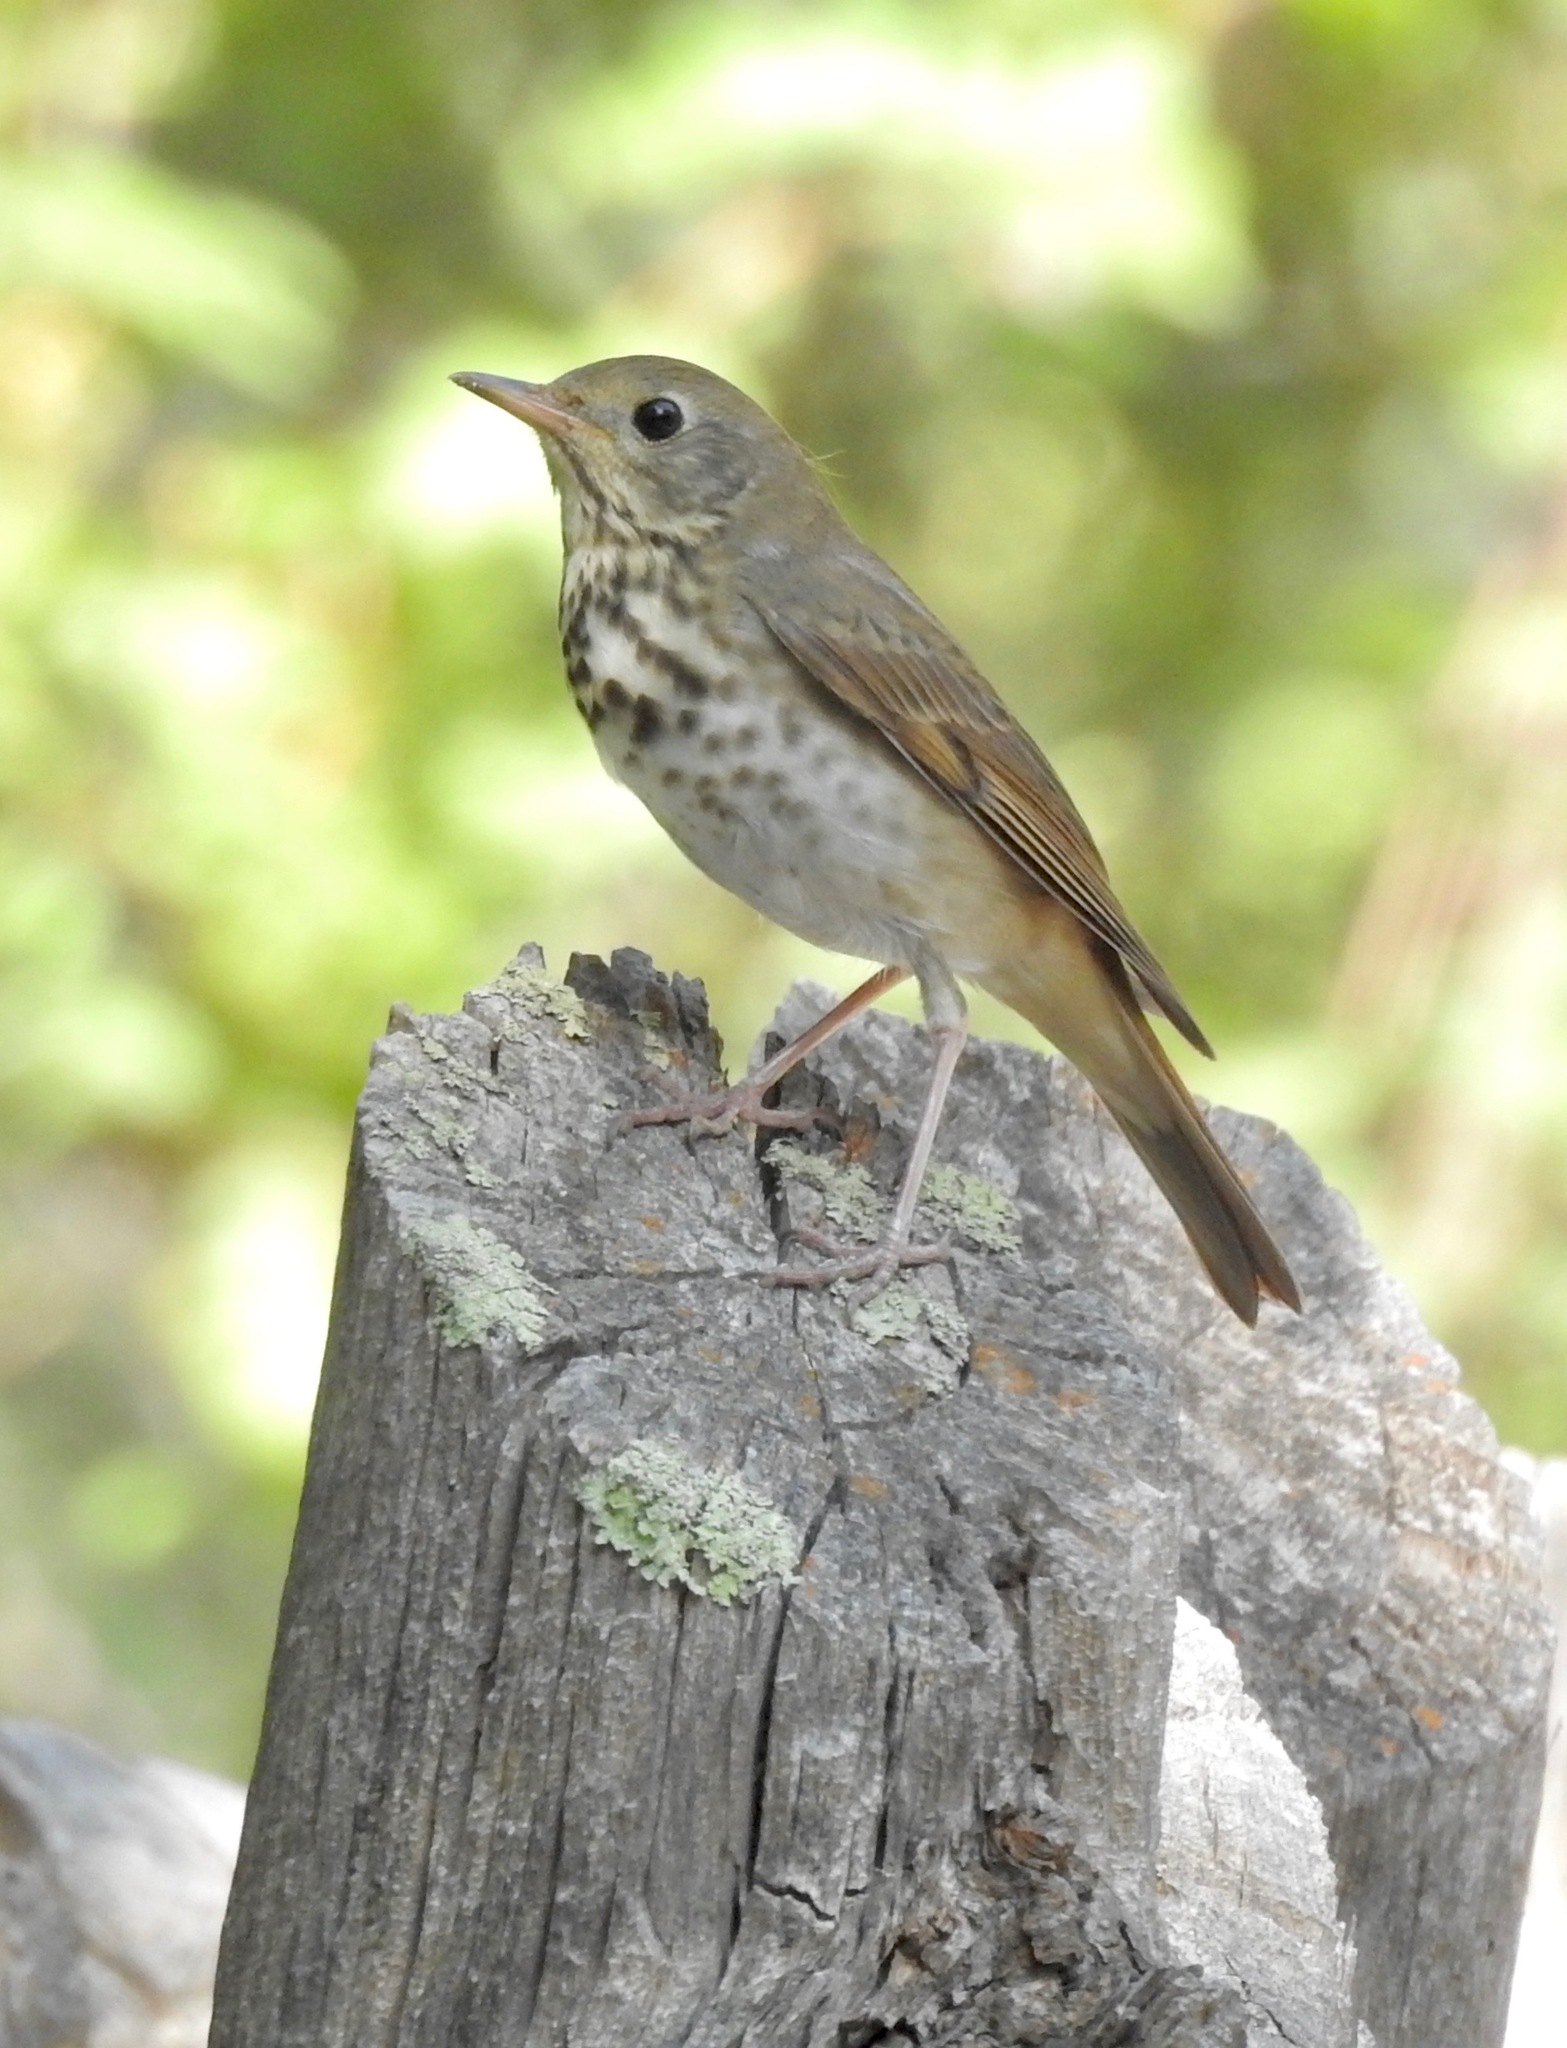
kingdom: Animalia
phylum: Chordata
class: Aves
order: Passeriformes
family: Turdidae
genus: Catharus
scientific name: Catharus guttatus
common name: Hermit thrush
